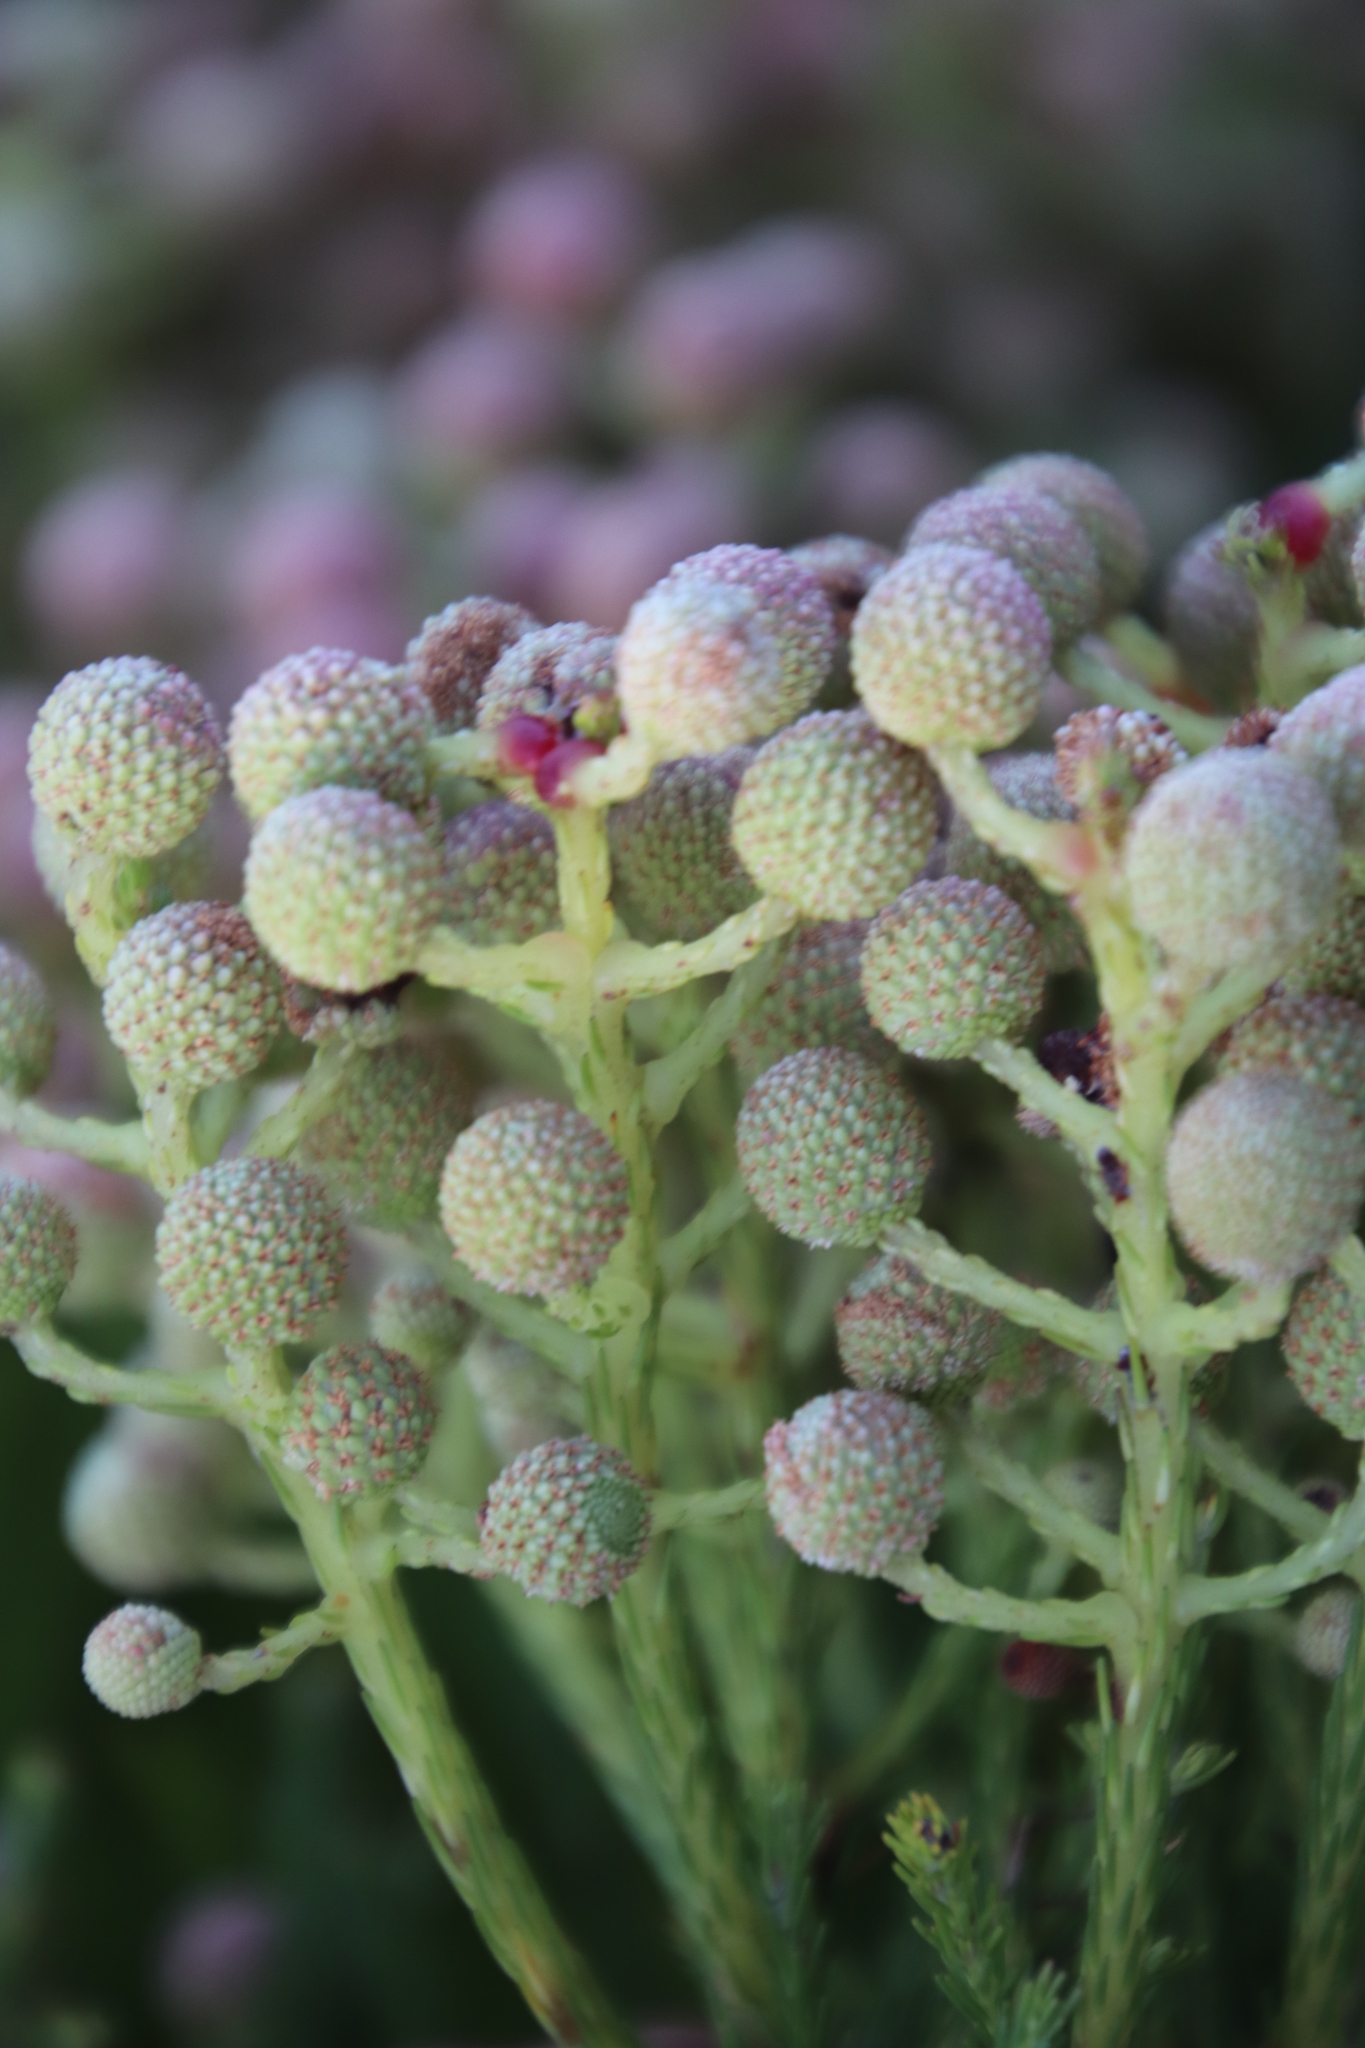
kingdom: Plantae
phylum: Tracheophyta
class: Magnoliopsida
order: Bruniales
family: Bruniaceae
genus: Berzelia
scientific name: Berzelia lanuginosa
